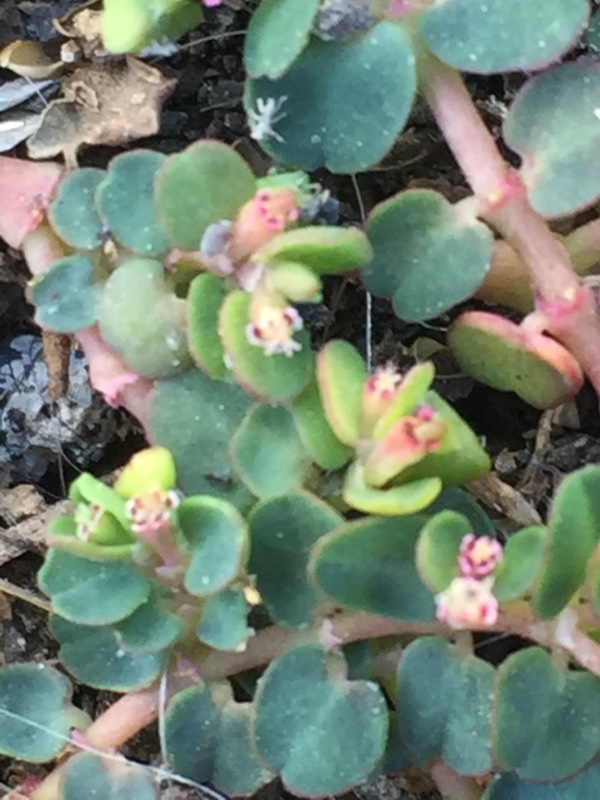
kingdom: Plantae
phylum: Tracheophyta
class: Magnoliopsida
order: Malpighiales
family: Euphorbiaceae
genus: Euphorbia
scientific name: Euphorbia serpens
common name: Matted sandmat
